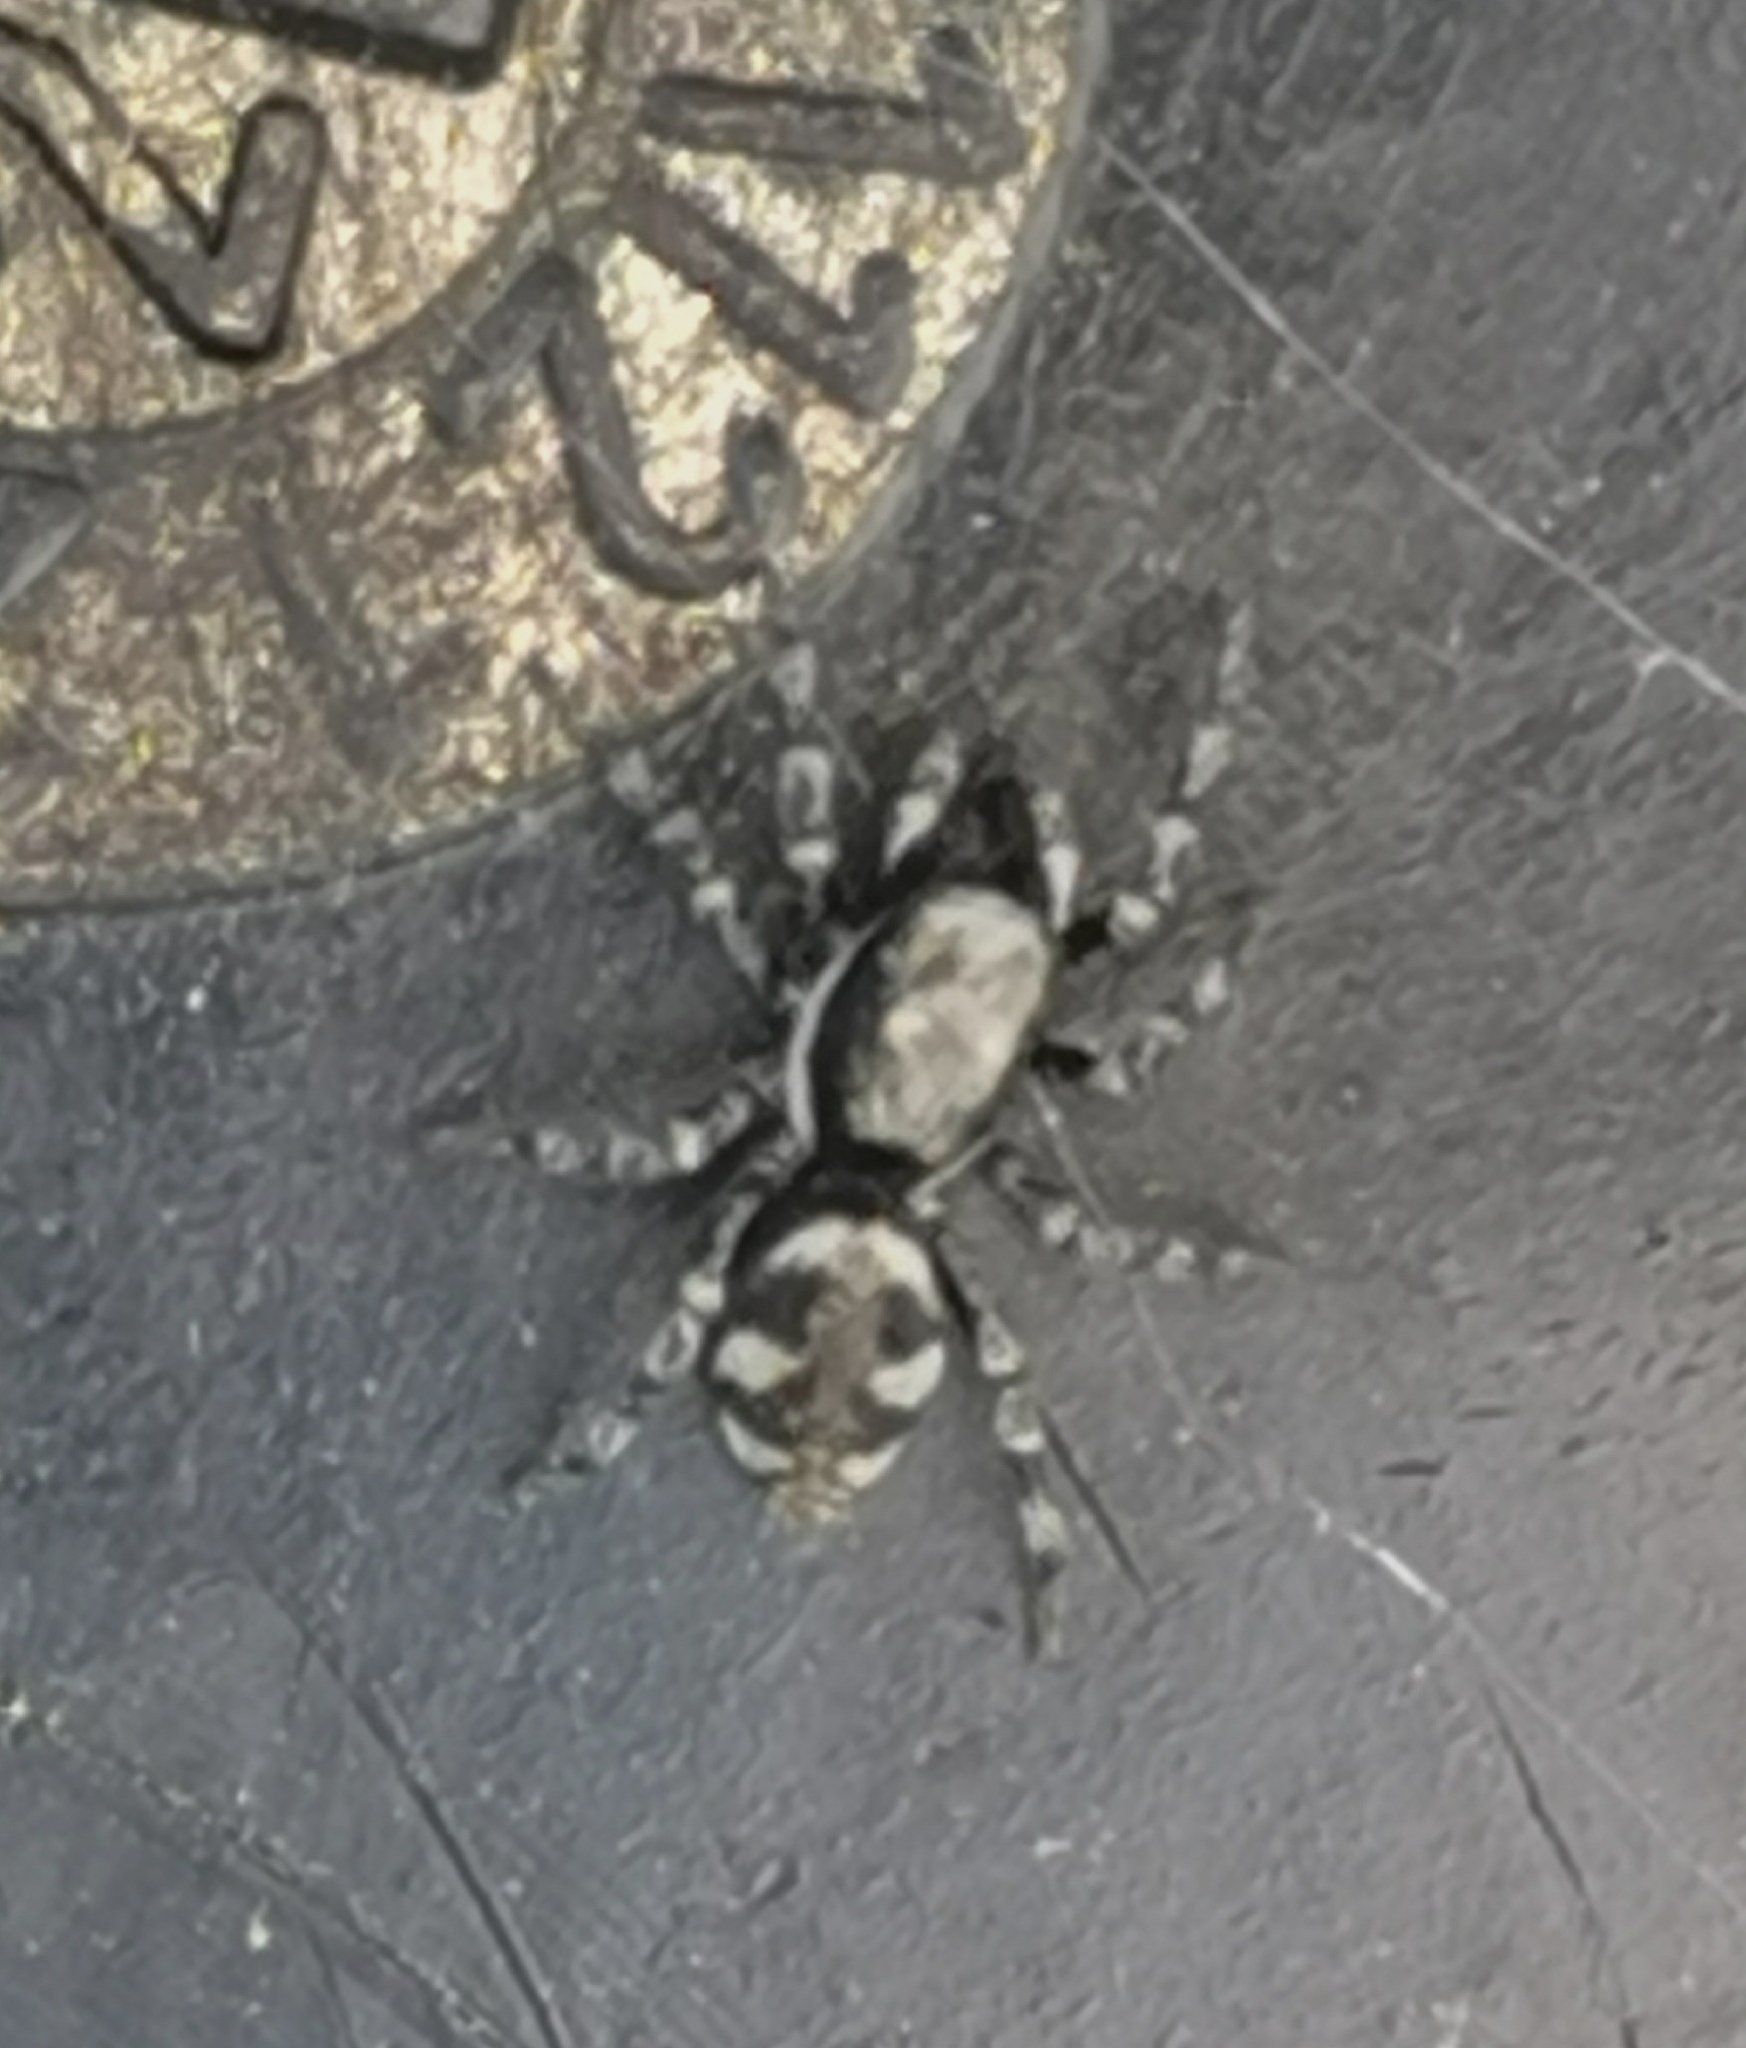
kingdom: Animalia
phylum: Arthropoda
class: Arachnida
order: Araneae
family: Salticidae
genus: Salticus
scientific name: Salticus cingulatus
